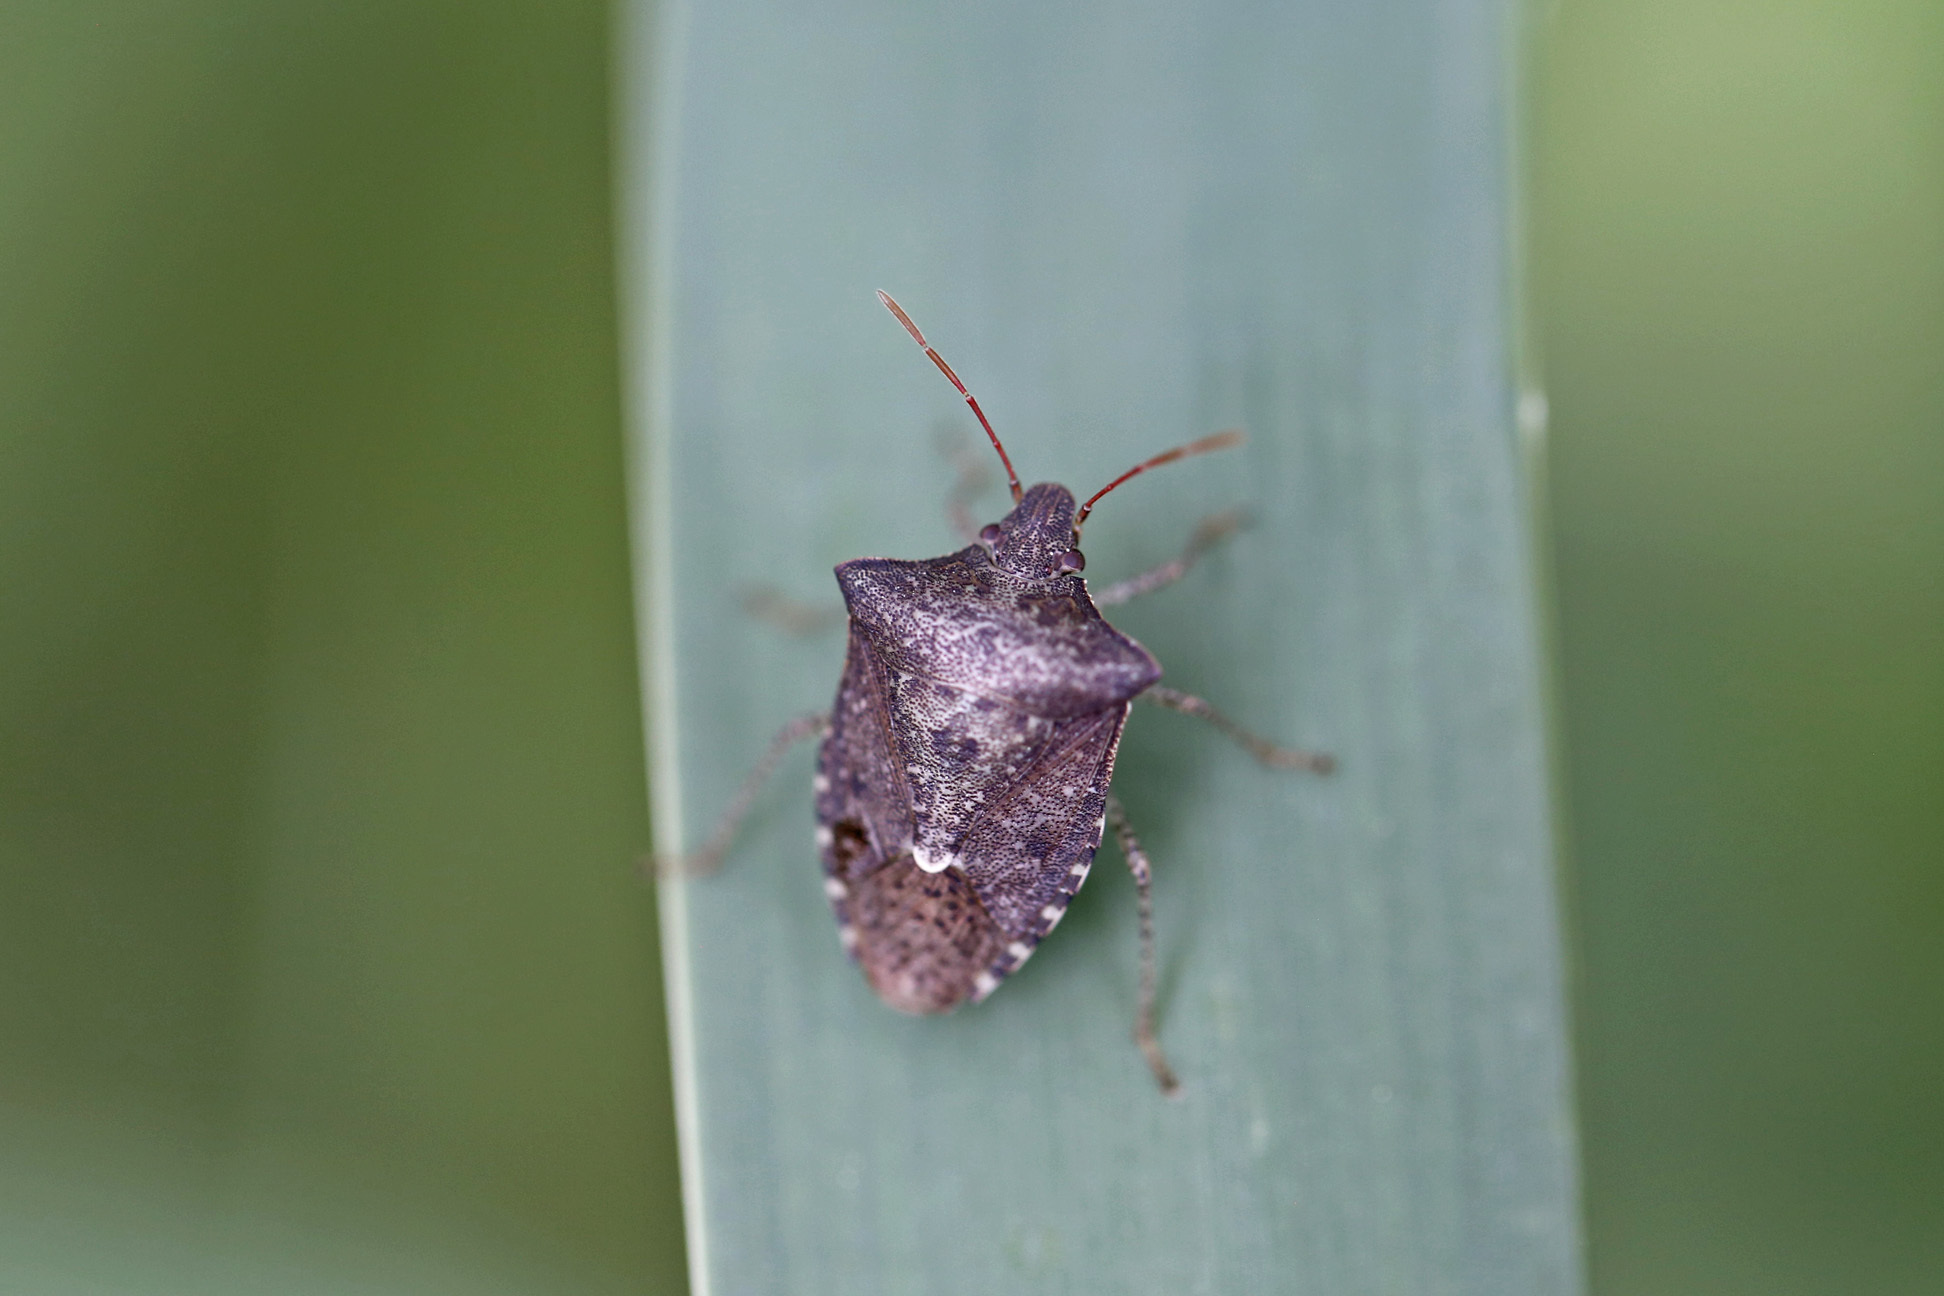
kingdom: Animalia
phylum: Arthropoda
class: Insecta
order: Hemiptera
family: Pentatomidae
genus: Euschistus
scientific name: Euschistus tristigmus
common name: Dusky stink bug
